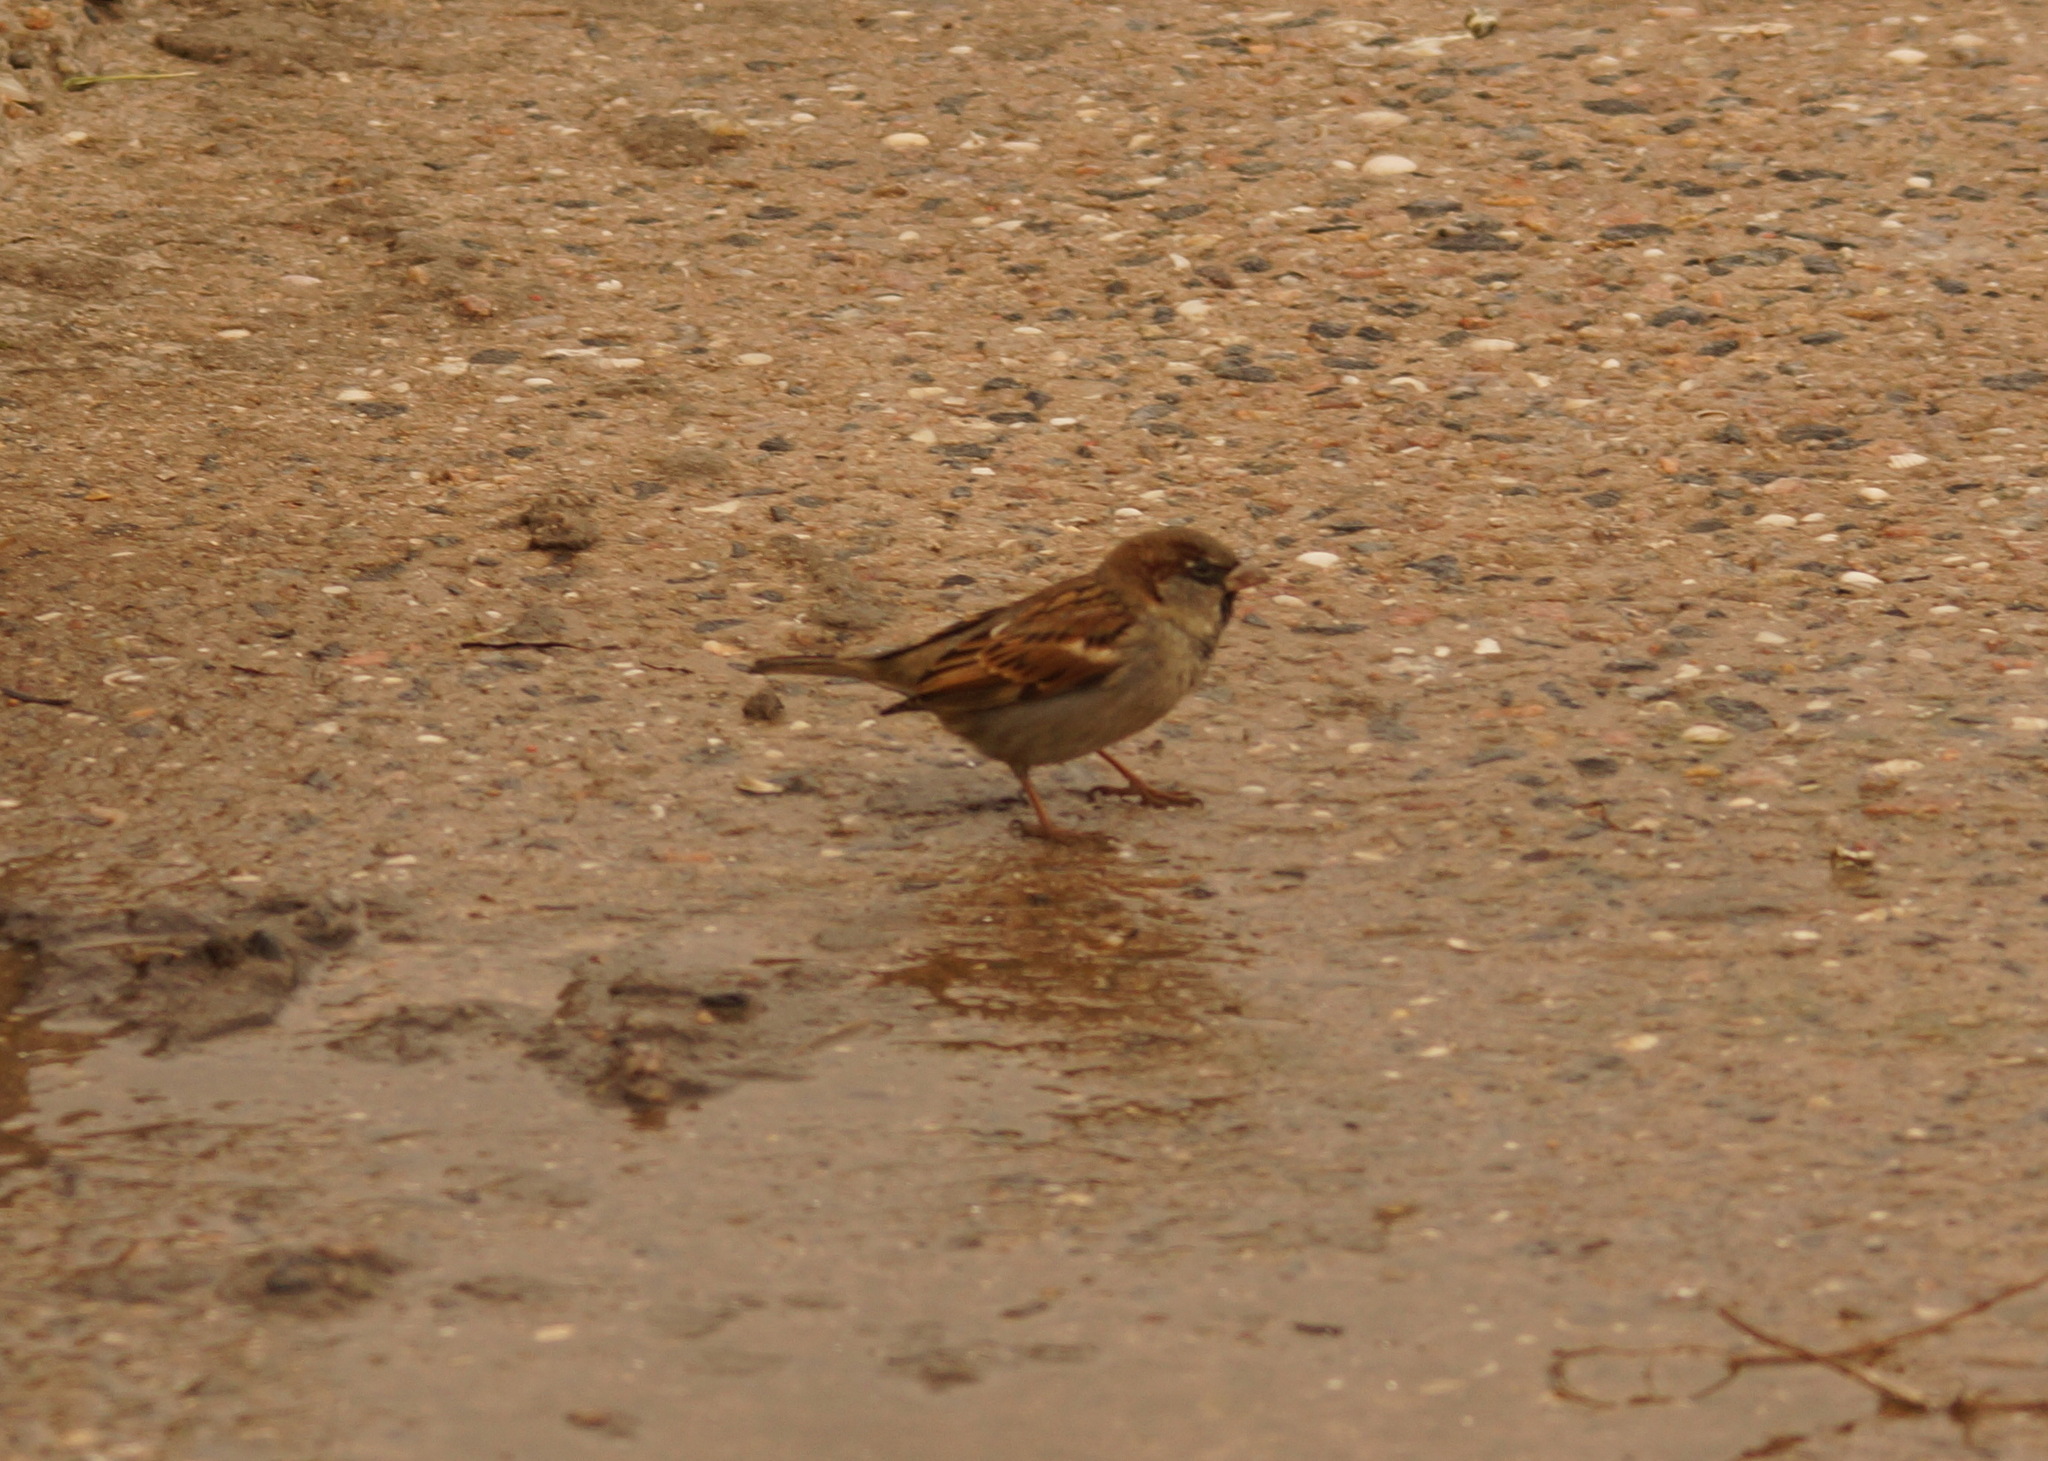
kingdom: Animalia
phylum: Chordata
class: Aves
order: Passeriformes
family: Passeridae
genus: Passer
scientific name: Passer domesticus
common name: House sparrow
